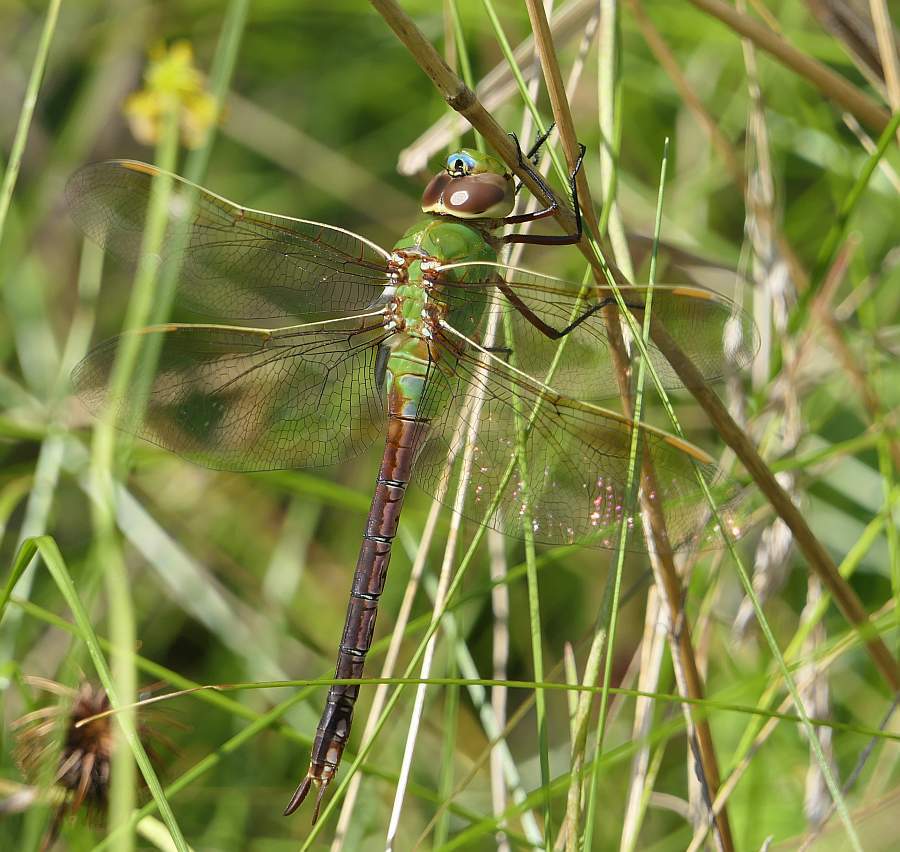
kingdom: Animalia
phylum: Arthropoda
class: Insecta
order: Odonata
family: Aeshnidae
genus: Anax
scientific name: Anax junius
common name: Common green darner
